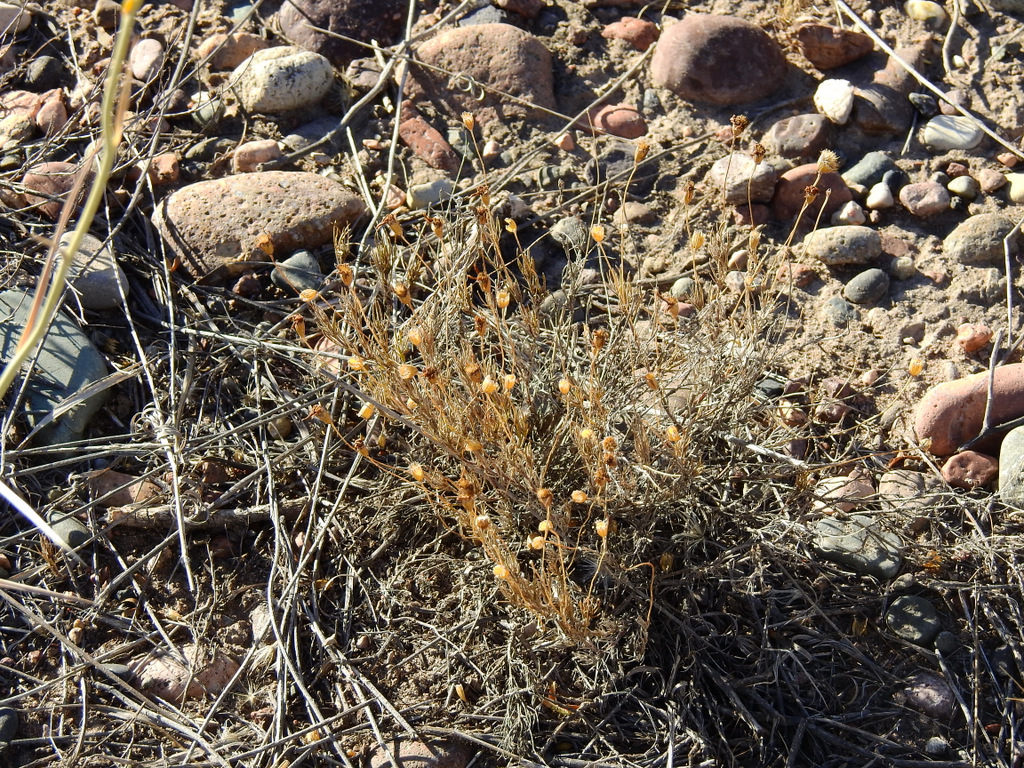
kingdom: Plantae
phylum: Tracheophyta
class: Magnoliopsida
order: Asterales
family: Asteraceae
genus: Thymophylla
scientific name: Thymophylla pentachaeta
